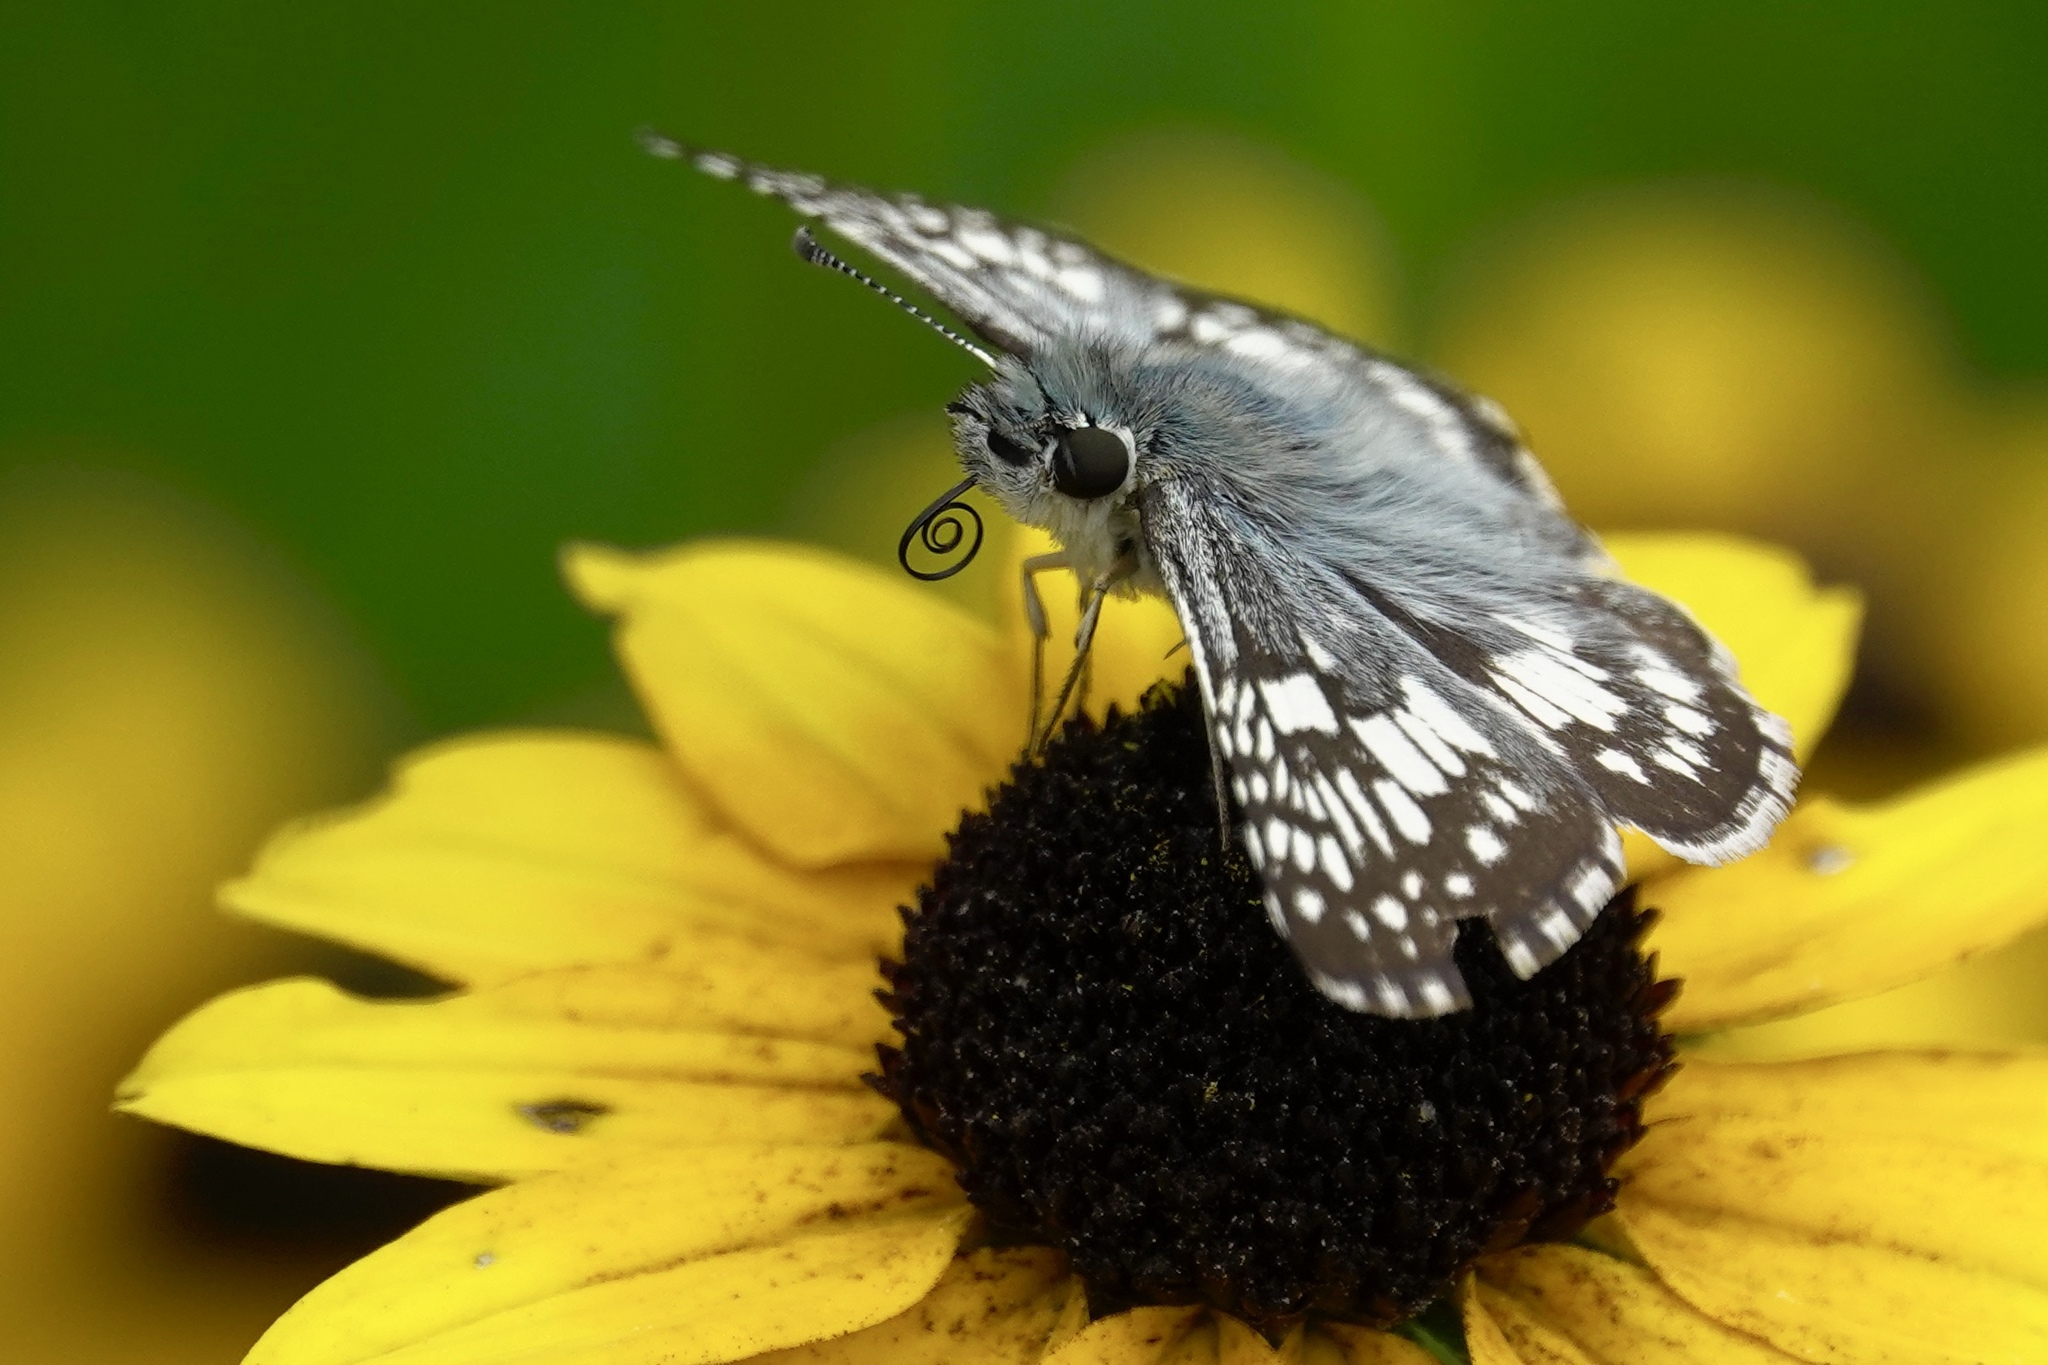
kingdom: Animalia
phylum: Arthropoda
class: Insecta
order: Lepidoptera
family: Hesperiidae
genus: Burnsius
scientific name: Burnsius communis
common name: Common checkered-skipper
